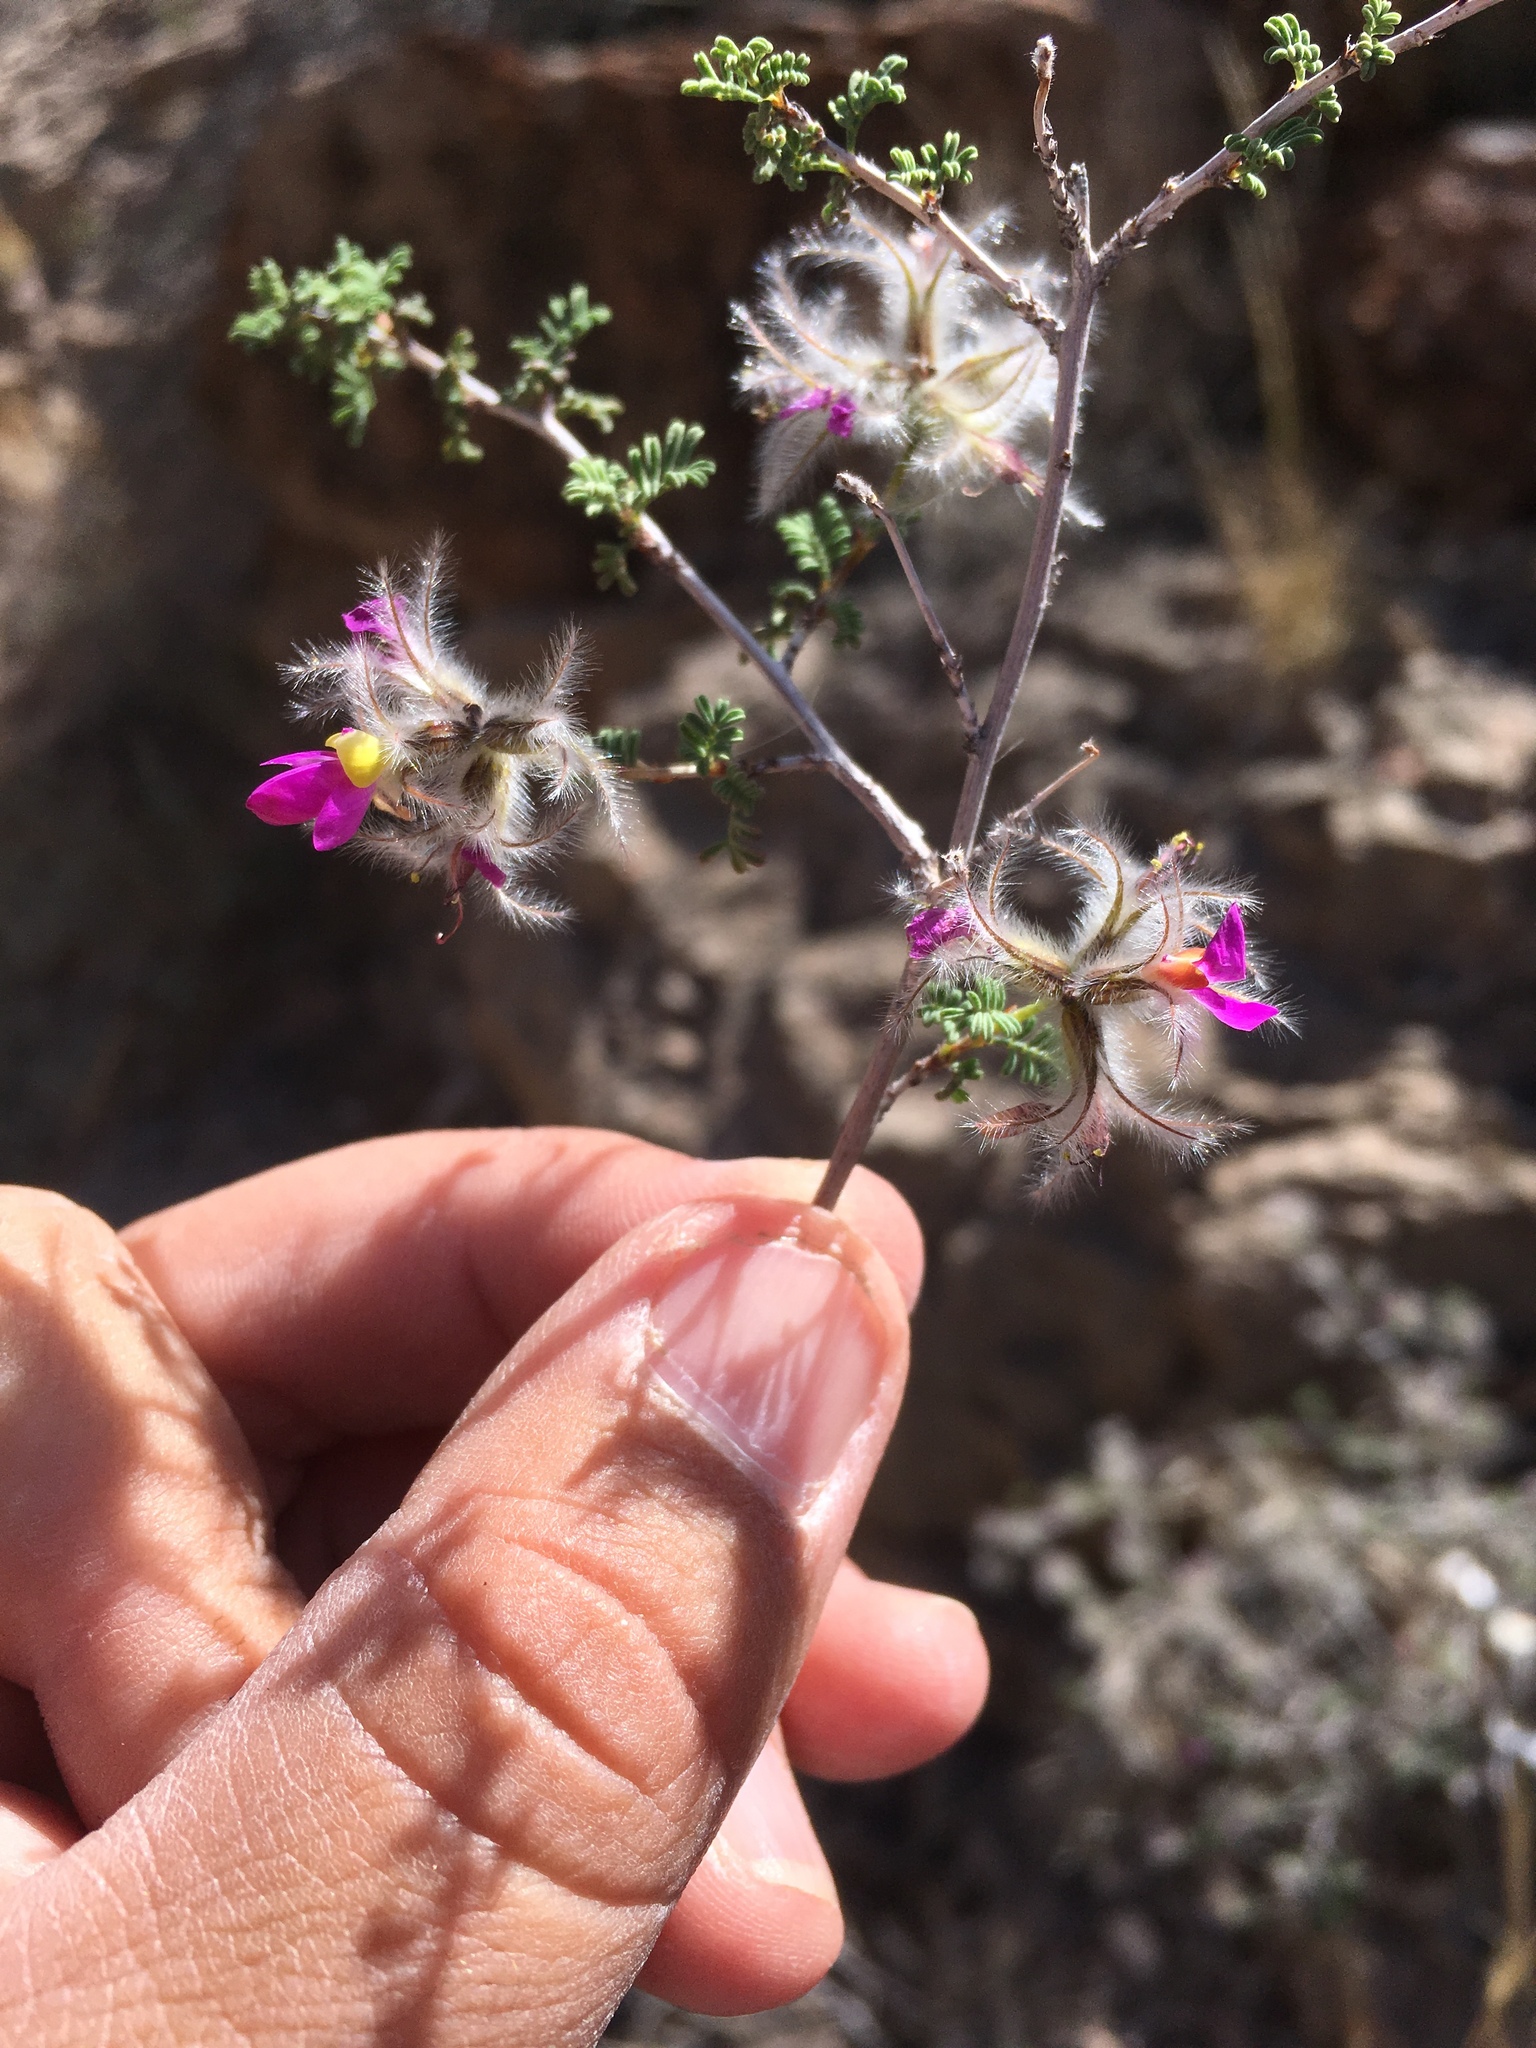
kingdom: Plantae
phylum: Tracheophyta
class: Magnoliopsida
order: Fabales
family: Fabaceae
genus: Dalea
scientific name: Dalea formosa
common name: Feather-plume dalea
